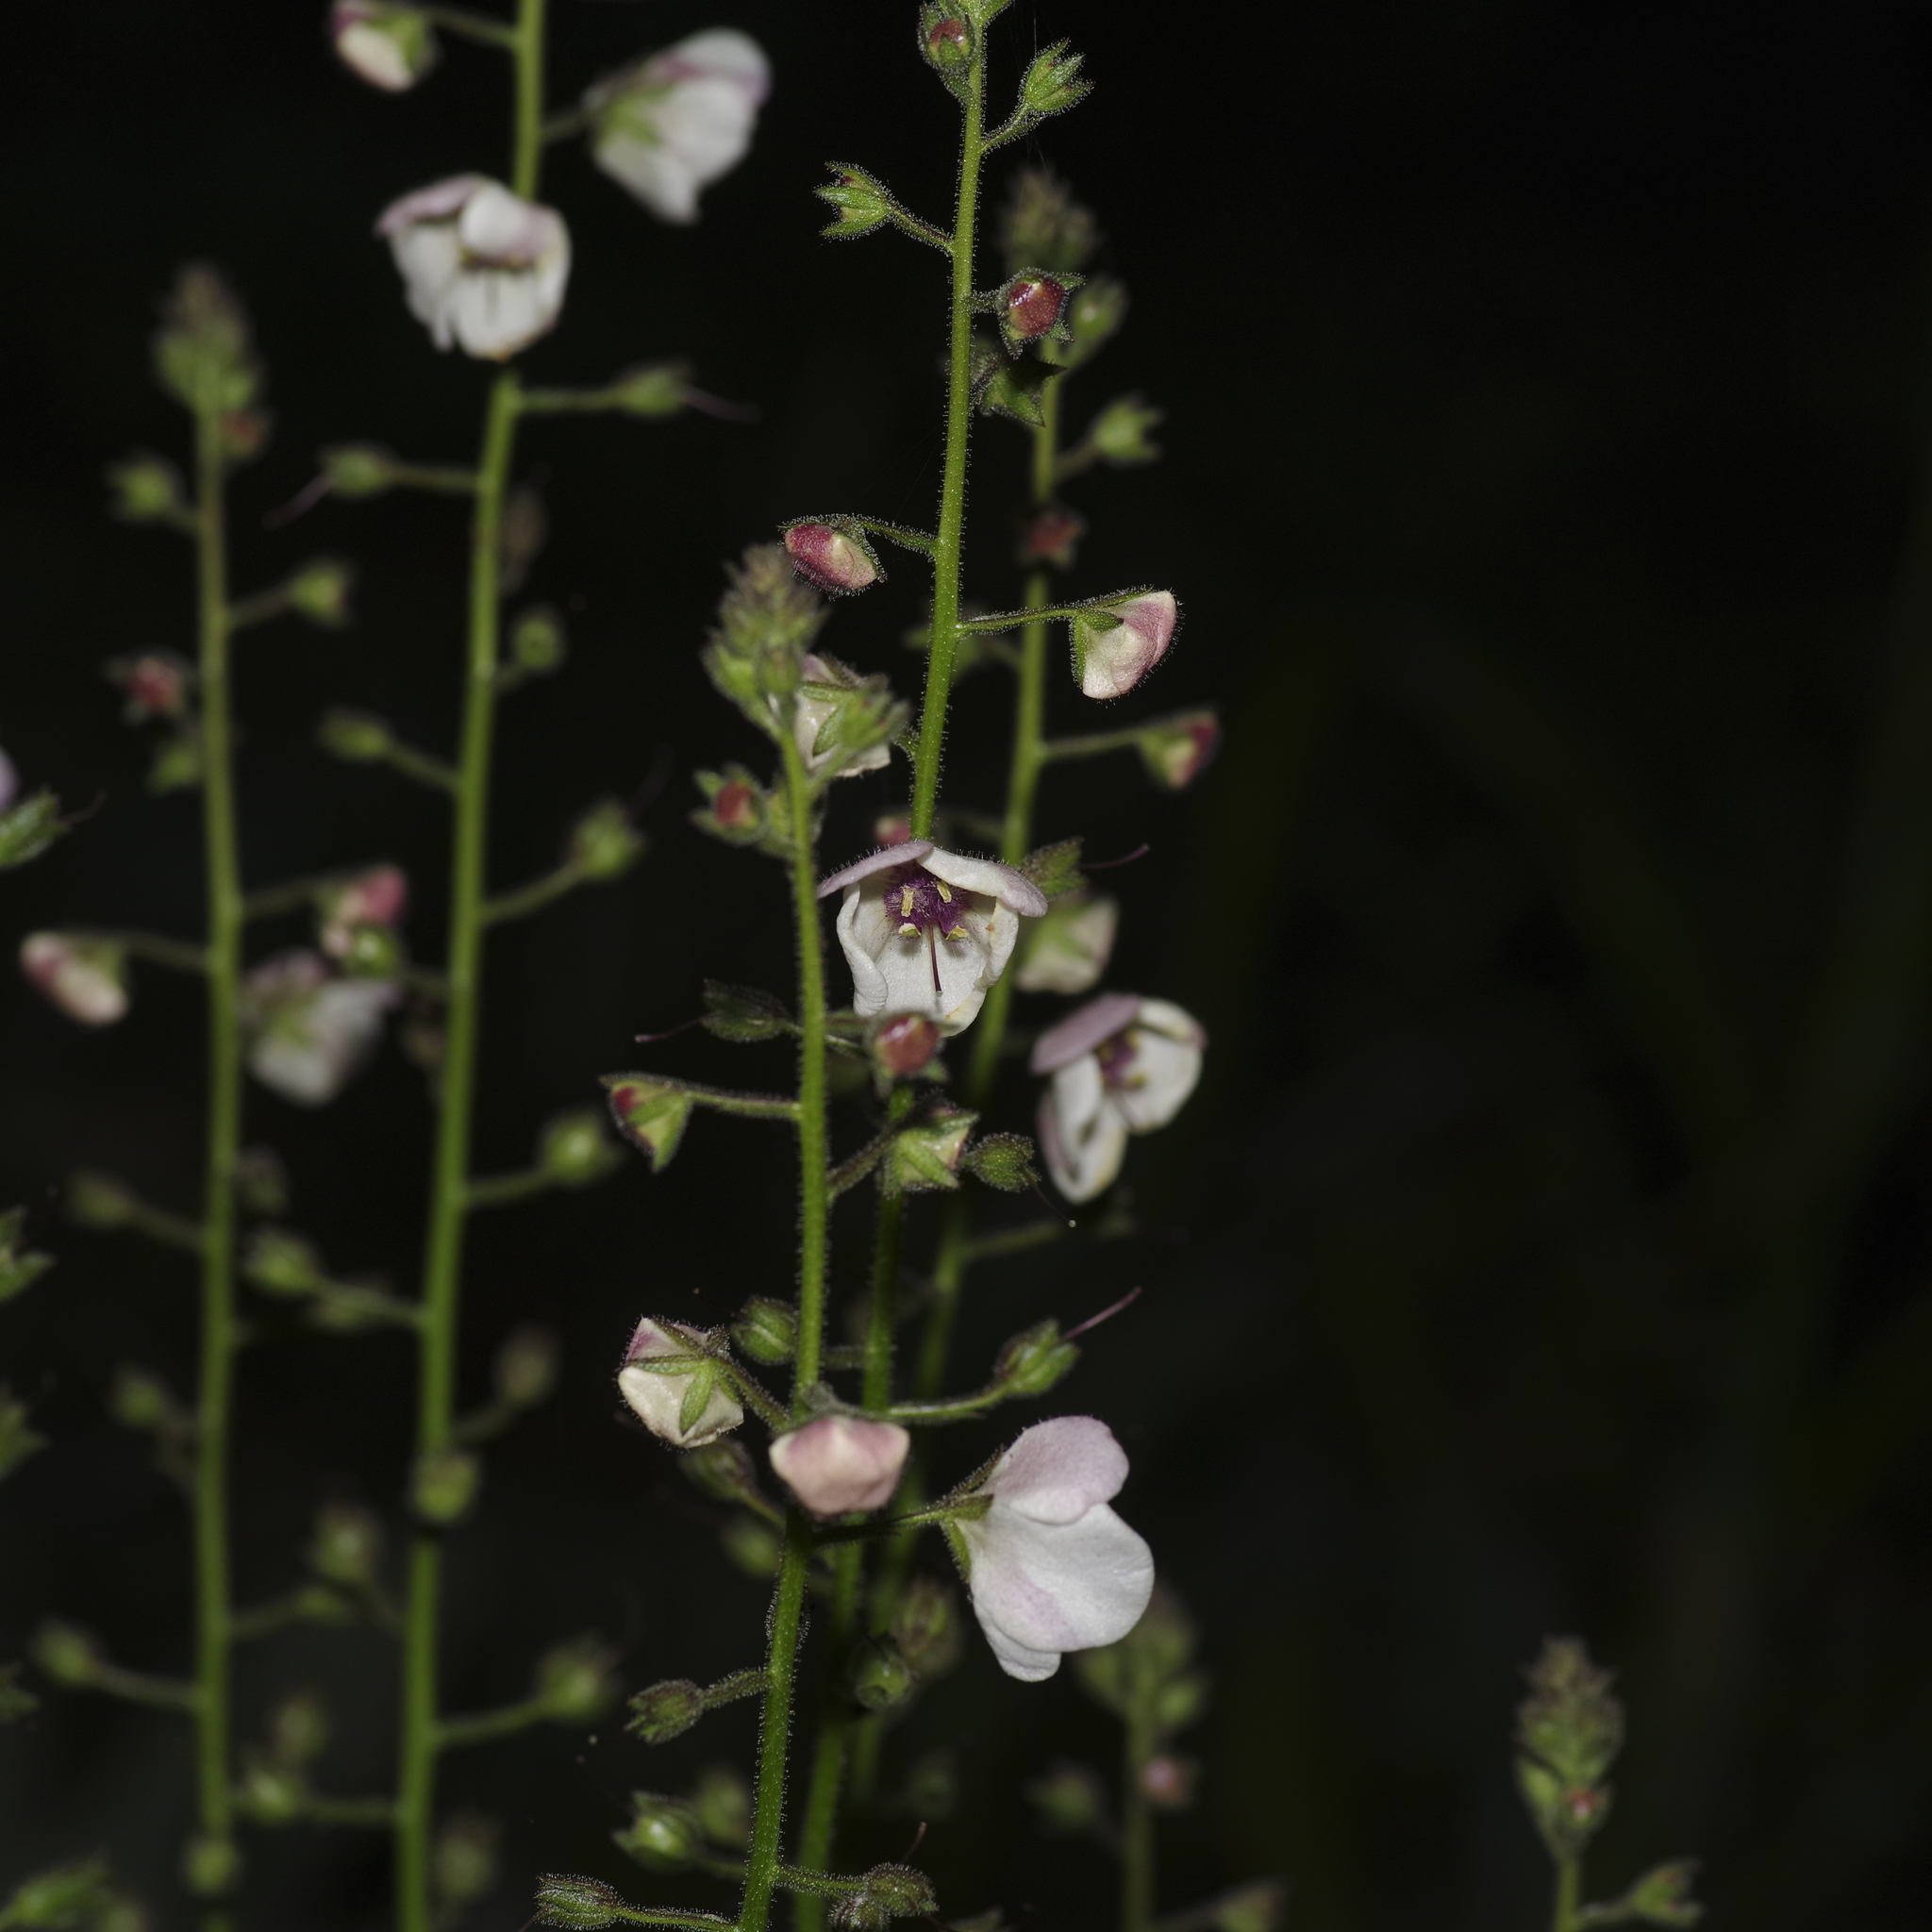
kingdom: Plantae
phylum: Tracheophyta
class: Magnoliopsida
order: Lamiales
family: Scrophulariaceae
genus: Verbascum
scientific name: Verbascum blattaria
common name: Moth mullein
